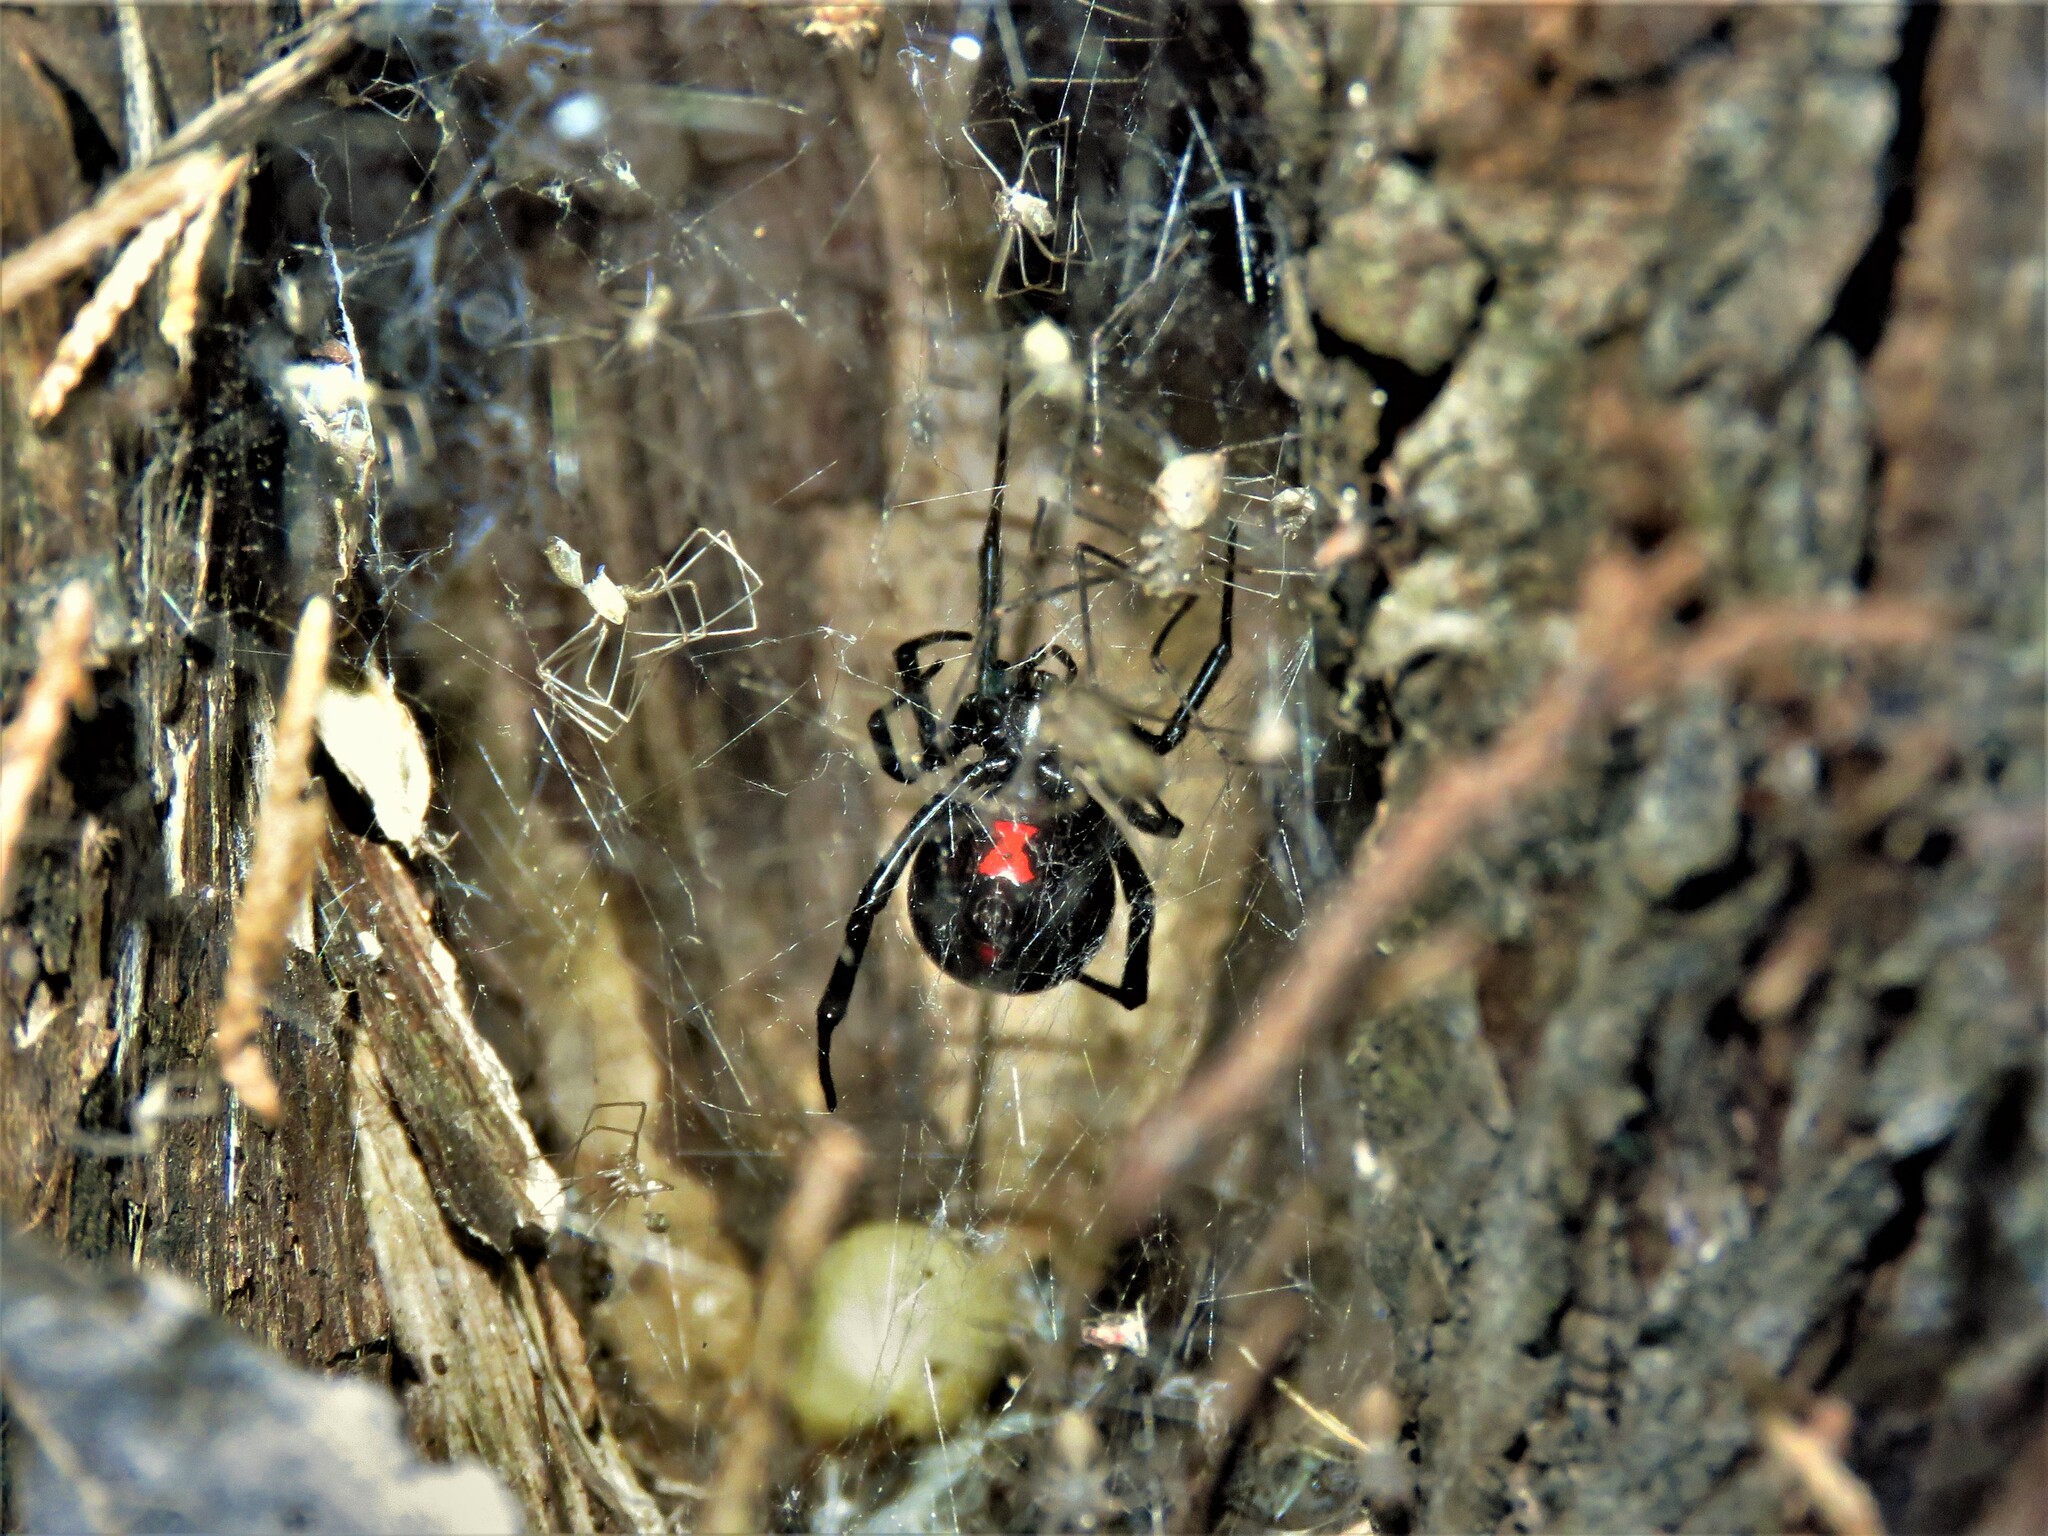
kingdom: Animalia
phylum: Arthropoda
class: Arachnida
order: Araneae
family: Theridiidae
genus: Latrodectus
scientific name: Latrodectus hesperus
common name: Western black widow
